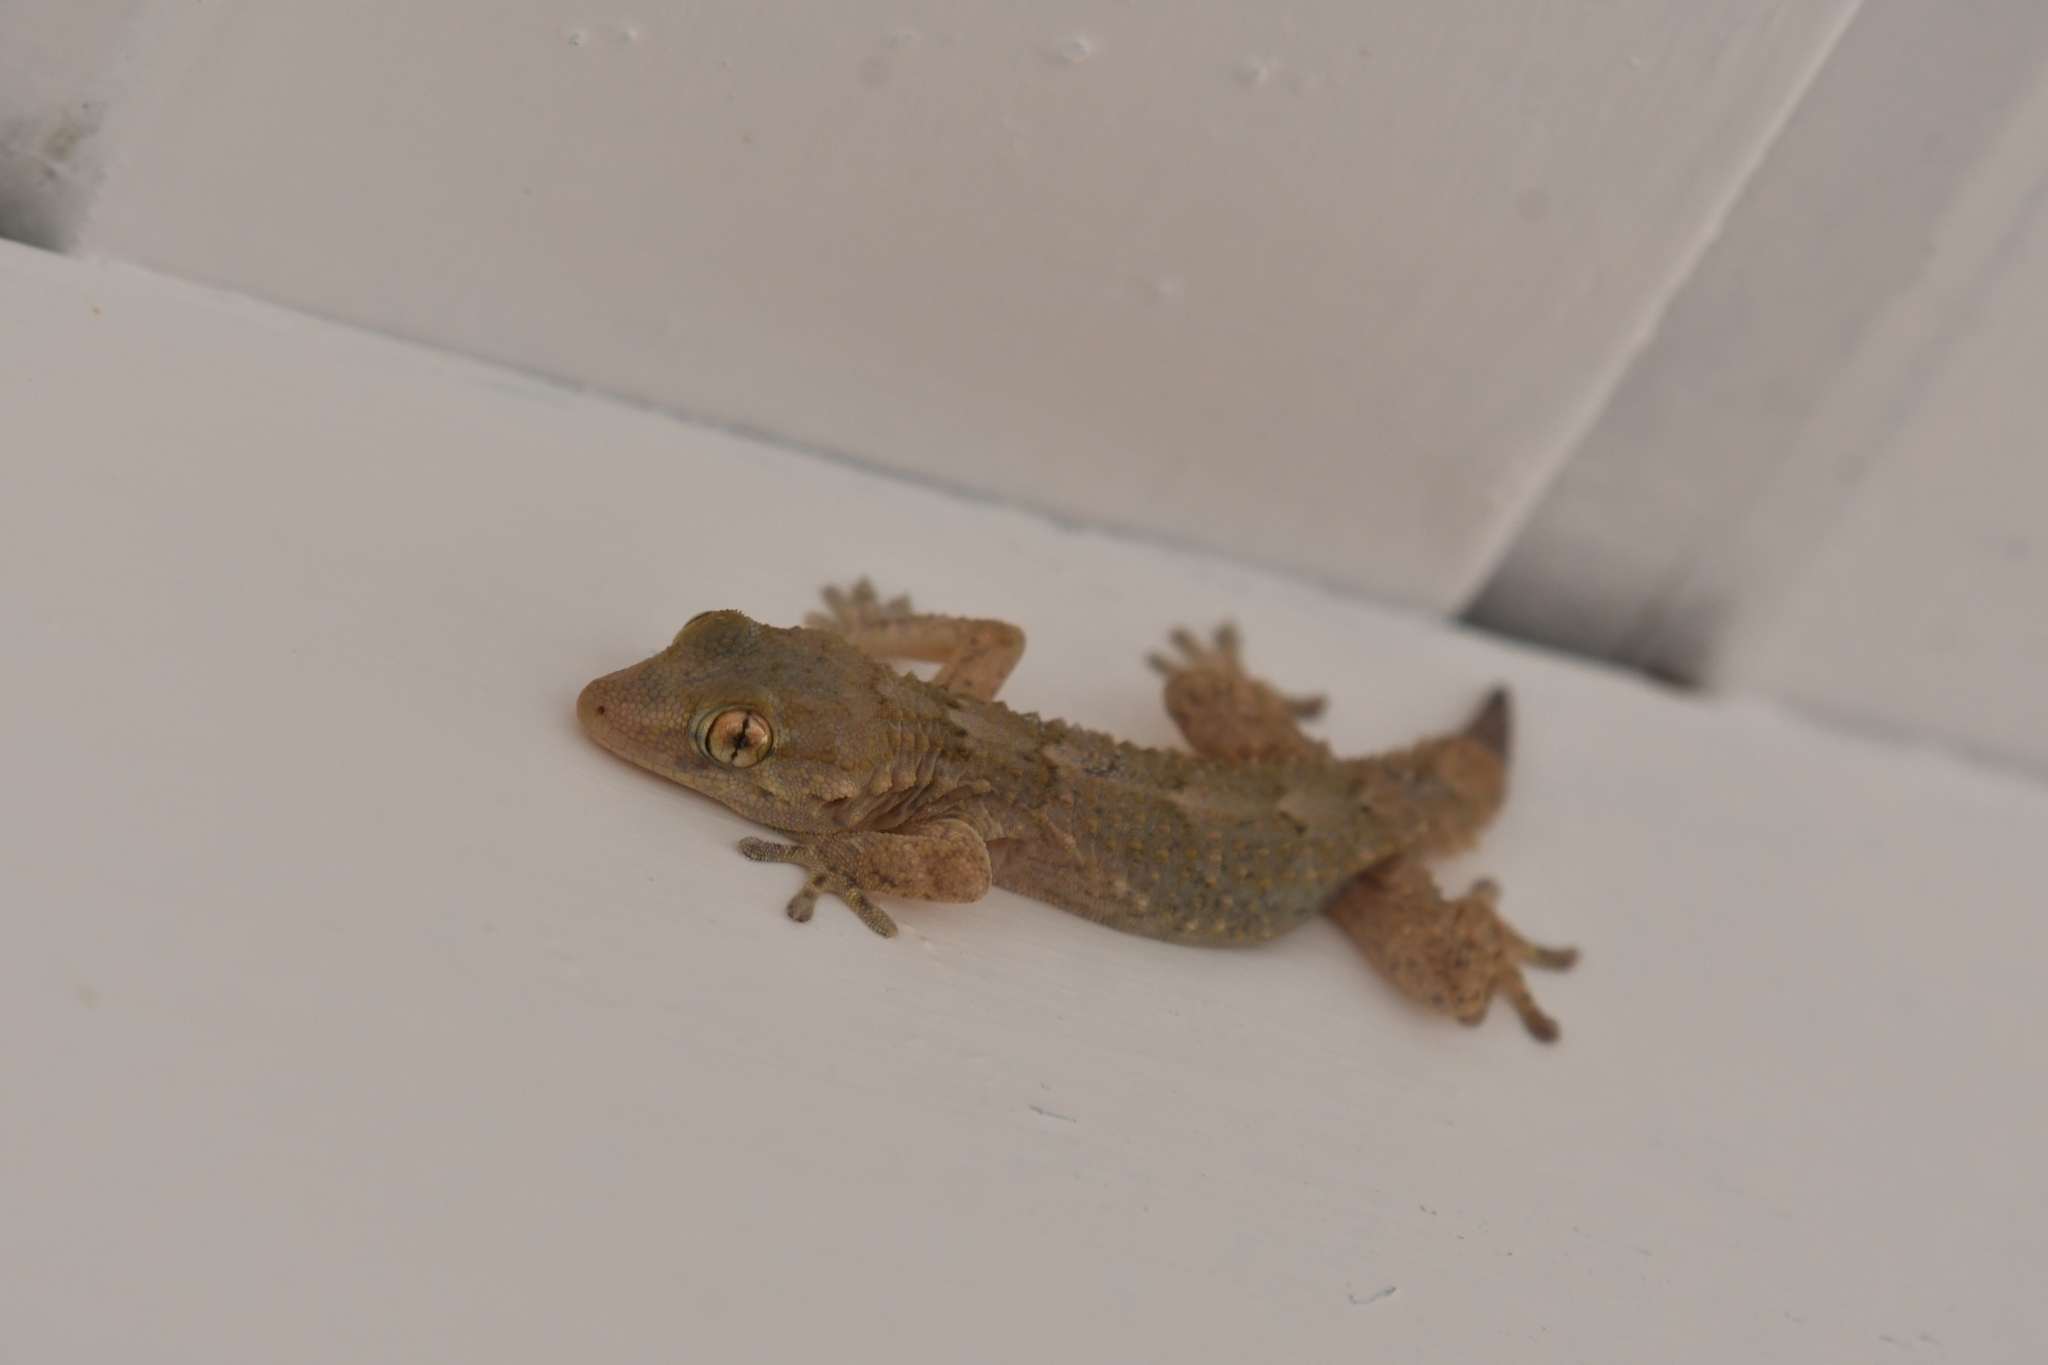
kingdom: Animalia
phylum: Chordata
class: Squamata
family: Phyllodactylidae
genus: Tarentola
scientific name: Tarentola angustimentalis
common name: East canary gecko
